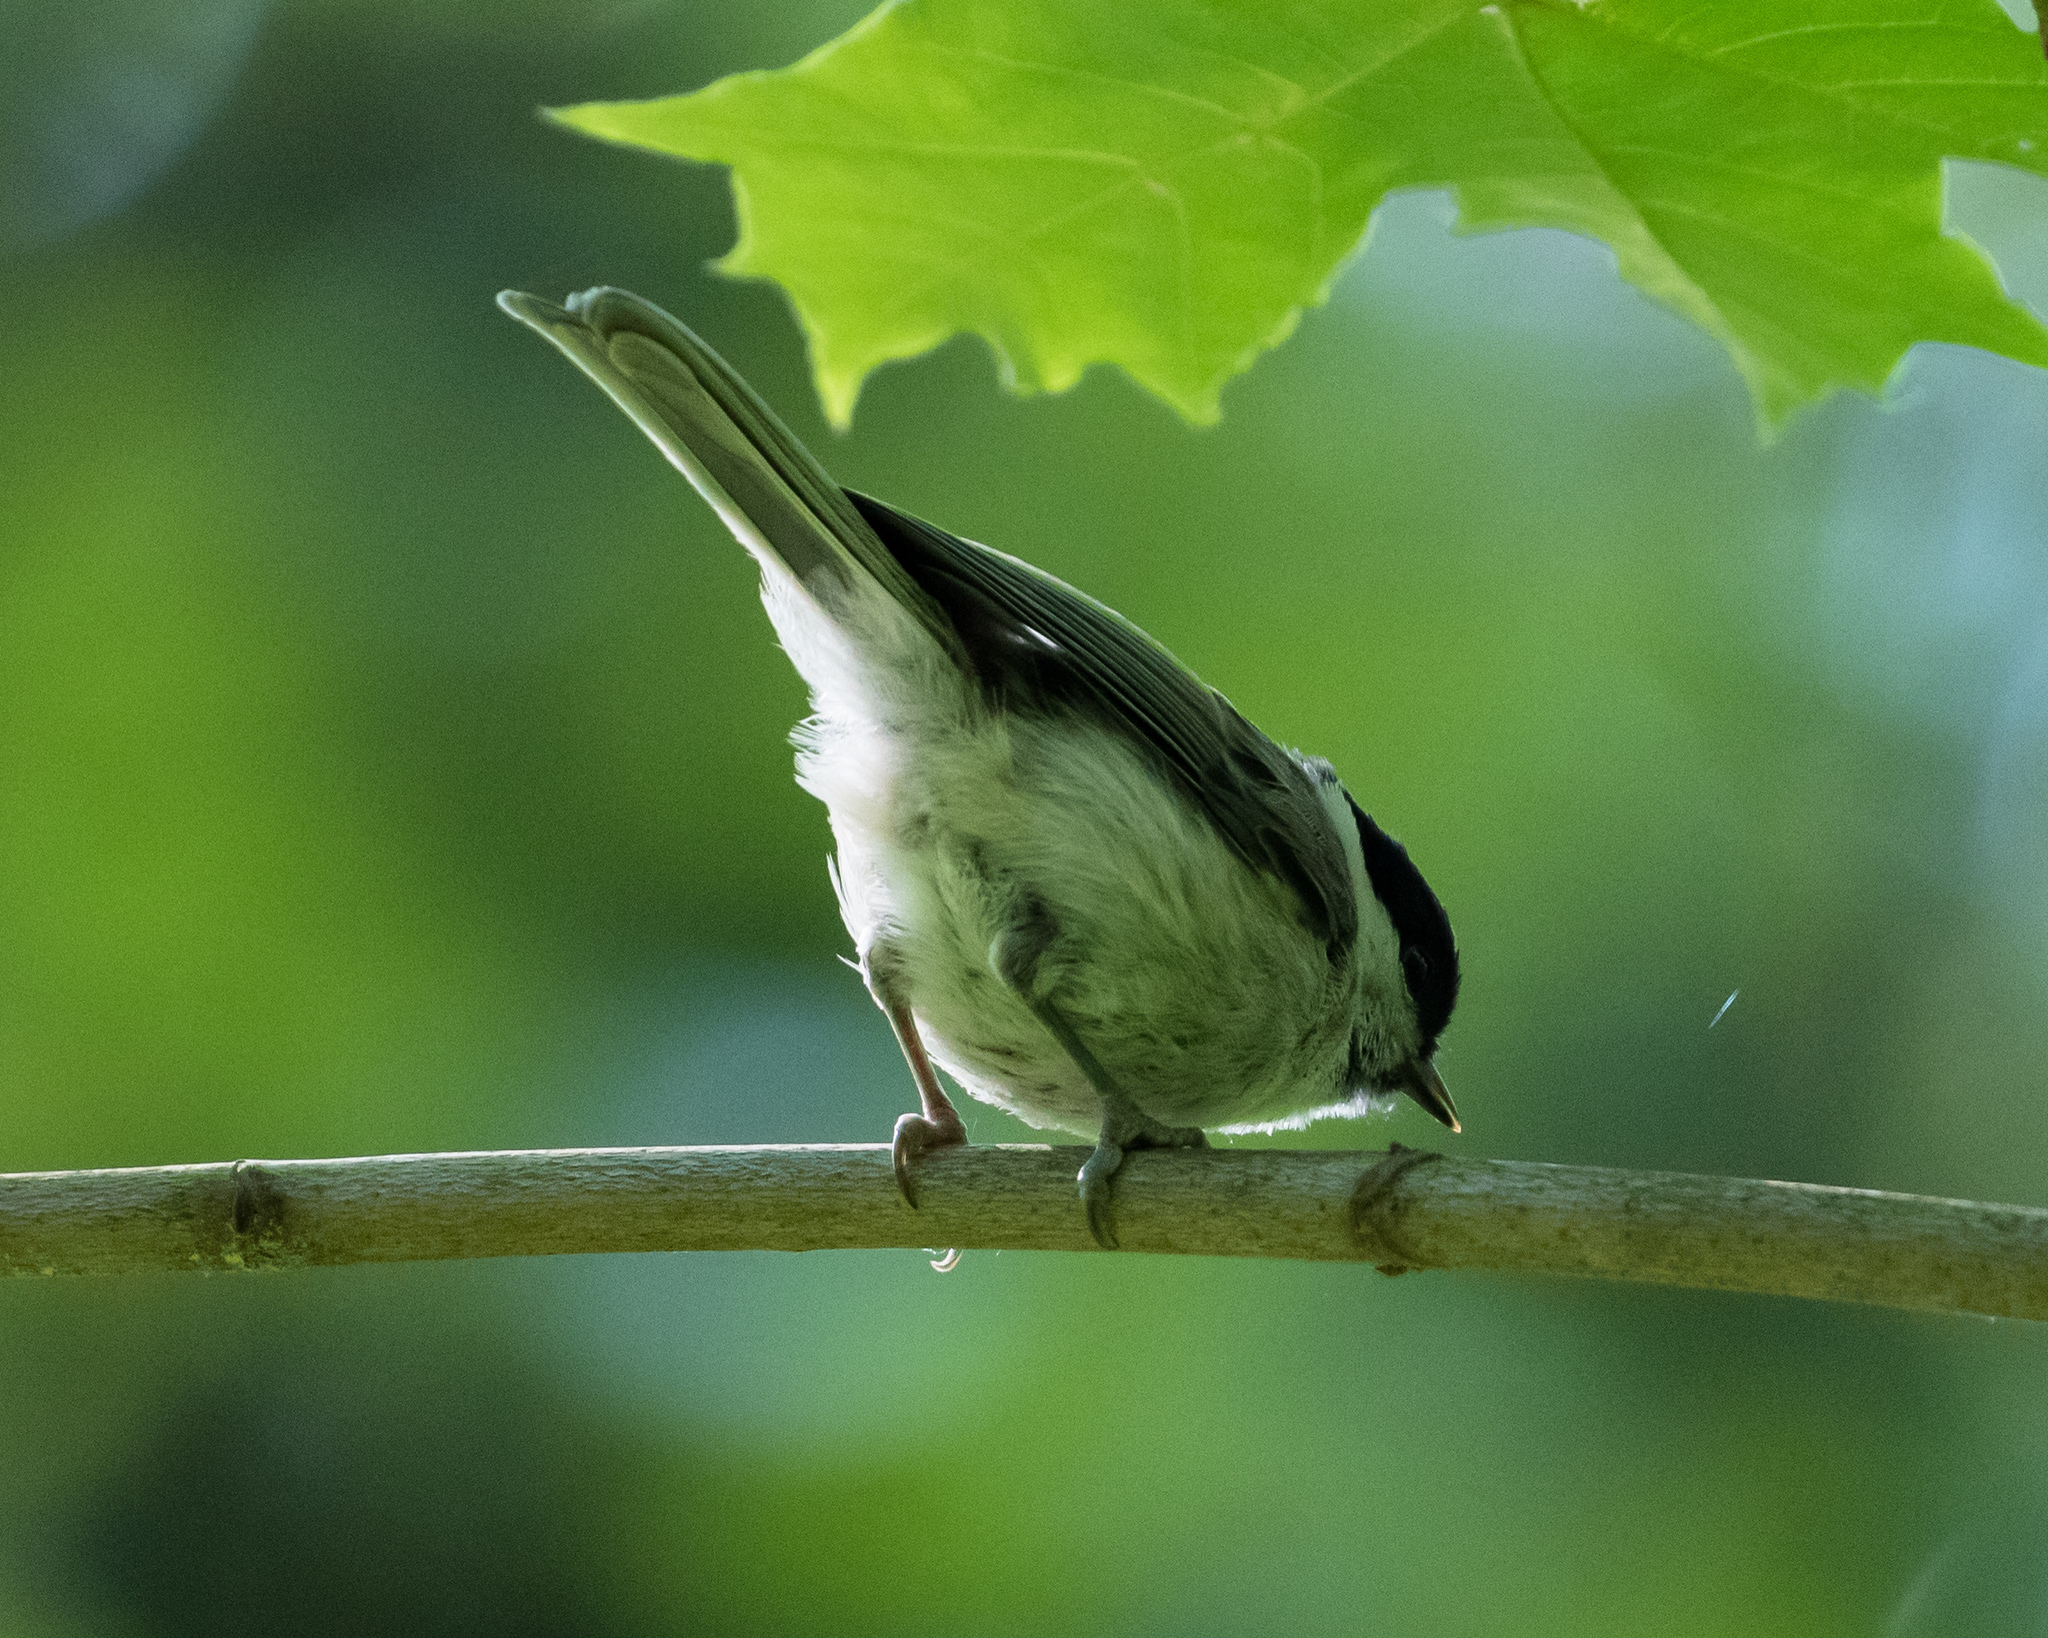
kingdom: Animalia
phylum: Chordata
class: Aves
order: Passeriformes
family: Paridae
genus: Poecile
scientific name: Poecile montanus
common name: Willow tit
